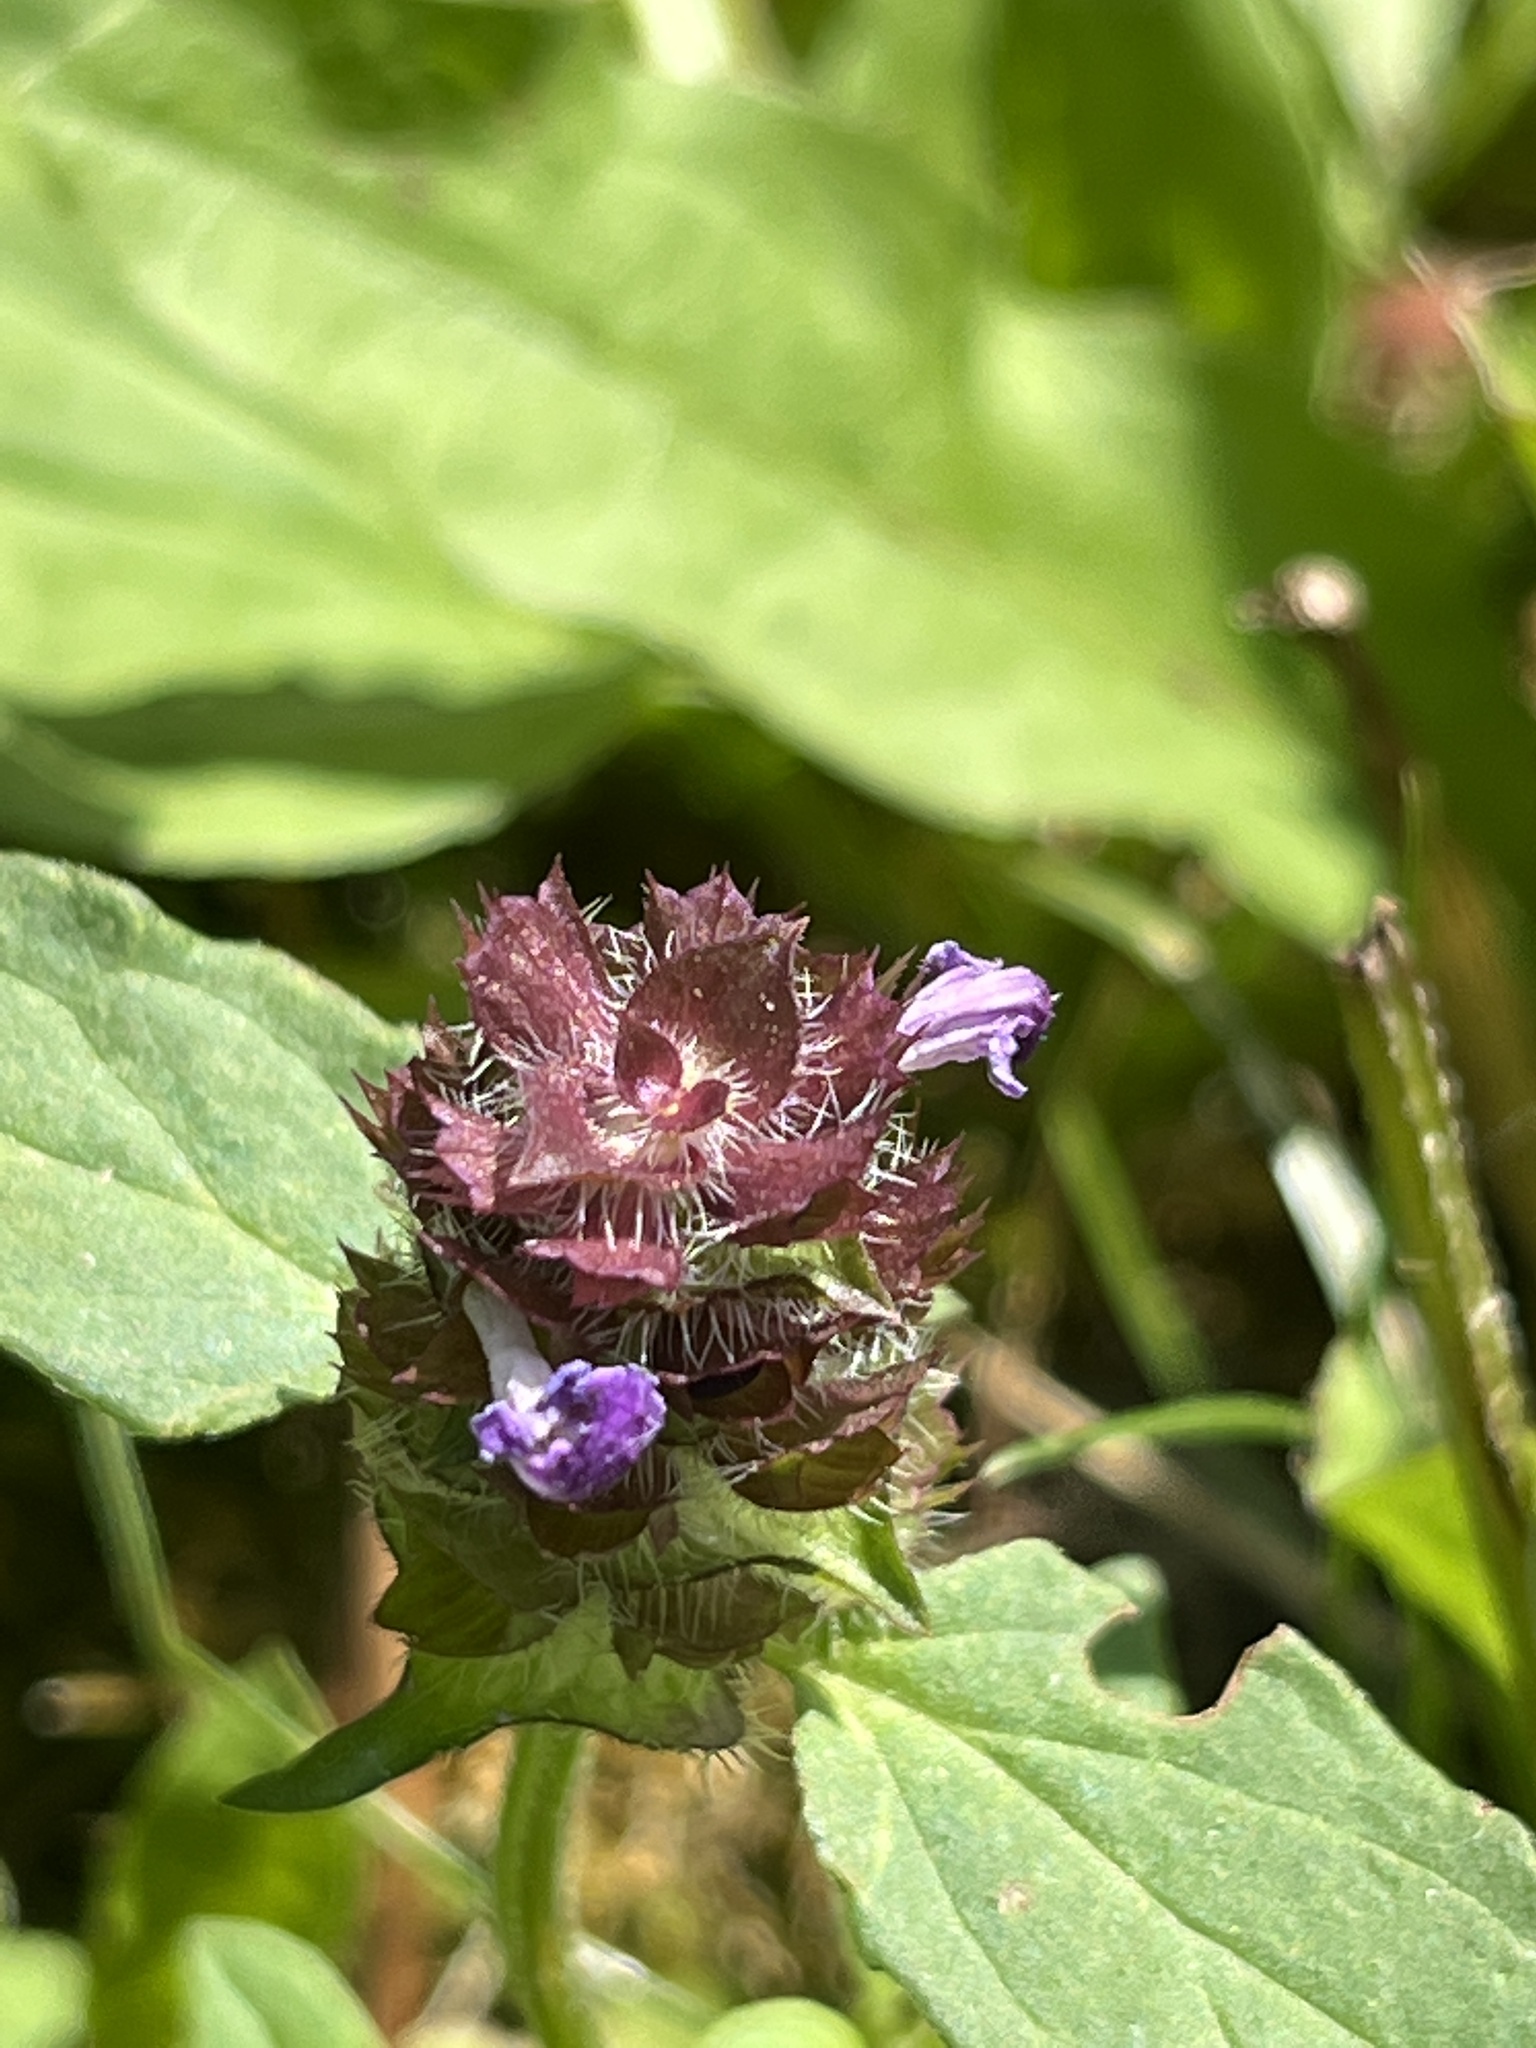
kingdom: Plantae
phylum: Tracheophyta
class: Magnoliopsida
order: Lamiales
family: Lamiaceae
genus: Prunella
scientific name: Prunella vulgaris
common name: Heal-all
